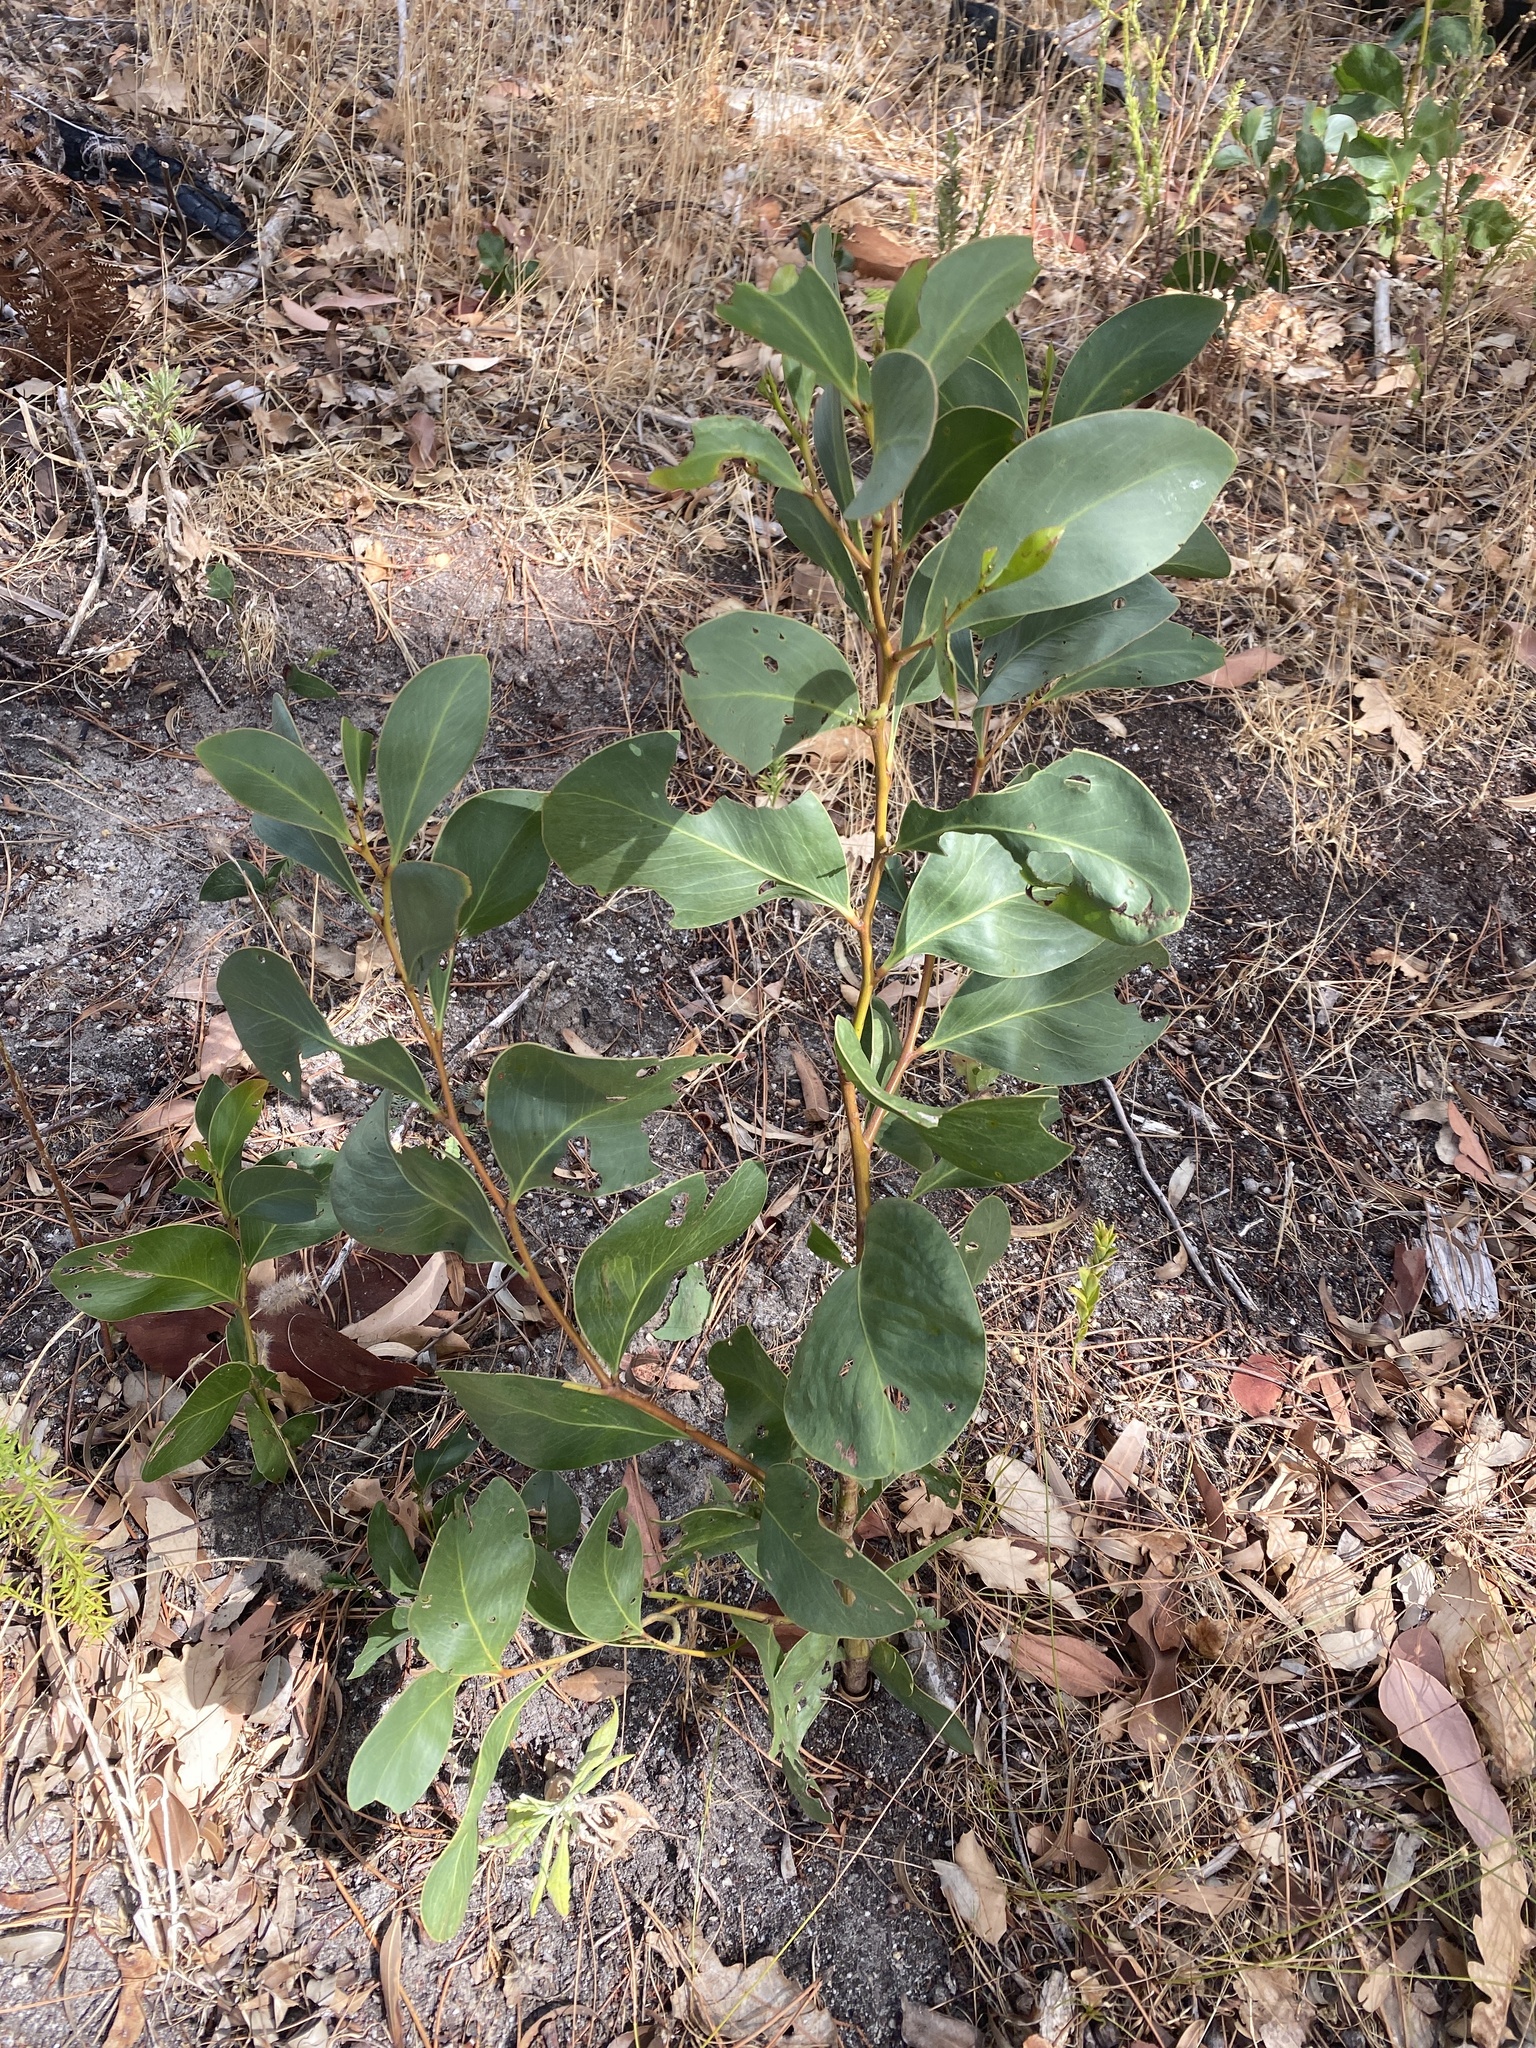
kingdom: Plantae
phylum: Tracheophyta
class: Magnoliopsida
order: Fabales
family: Fabaceae
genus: Acacia
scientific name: Acacia pycnantha
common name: Golden wattle
